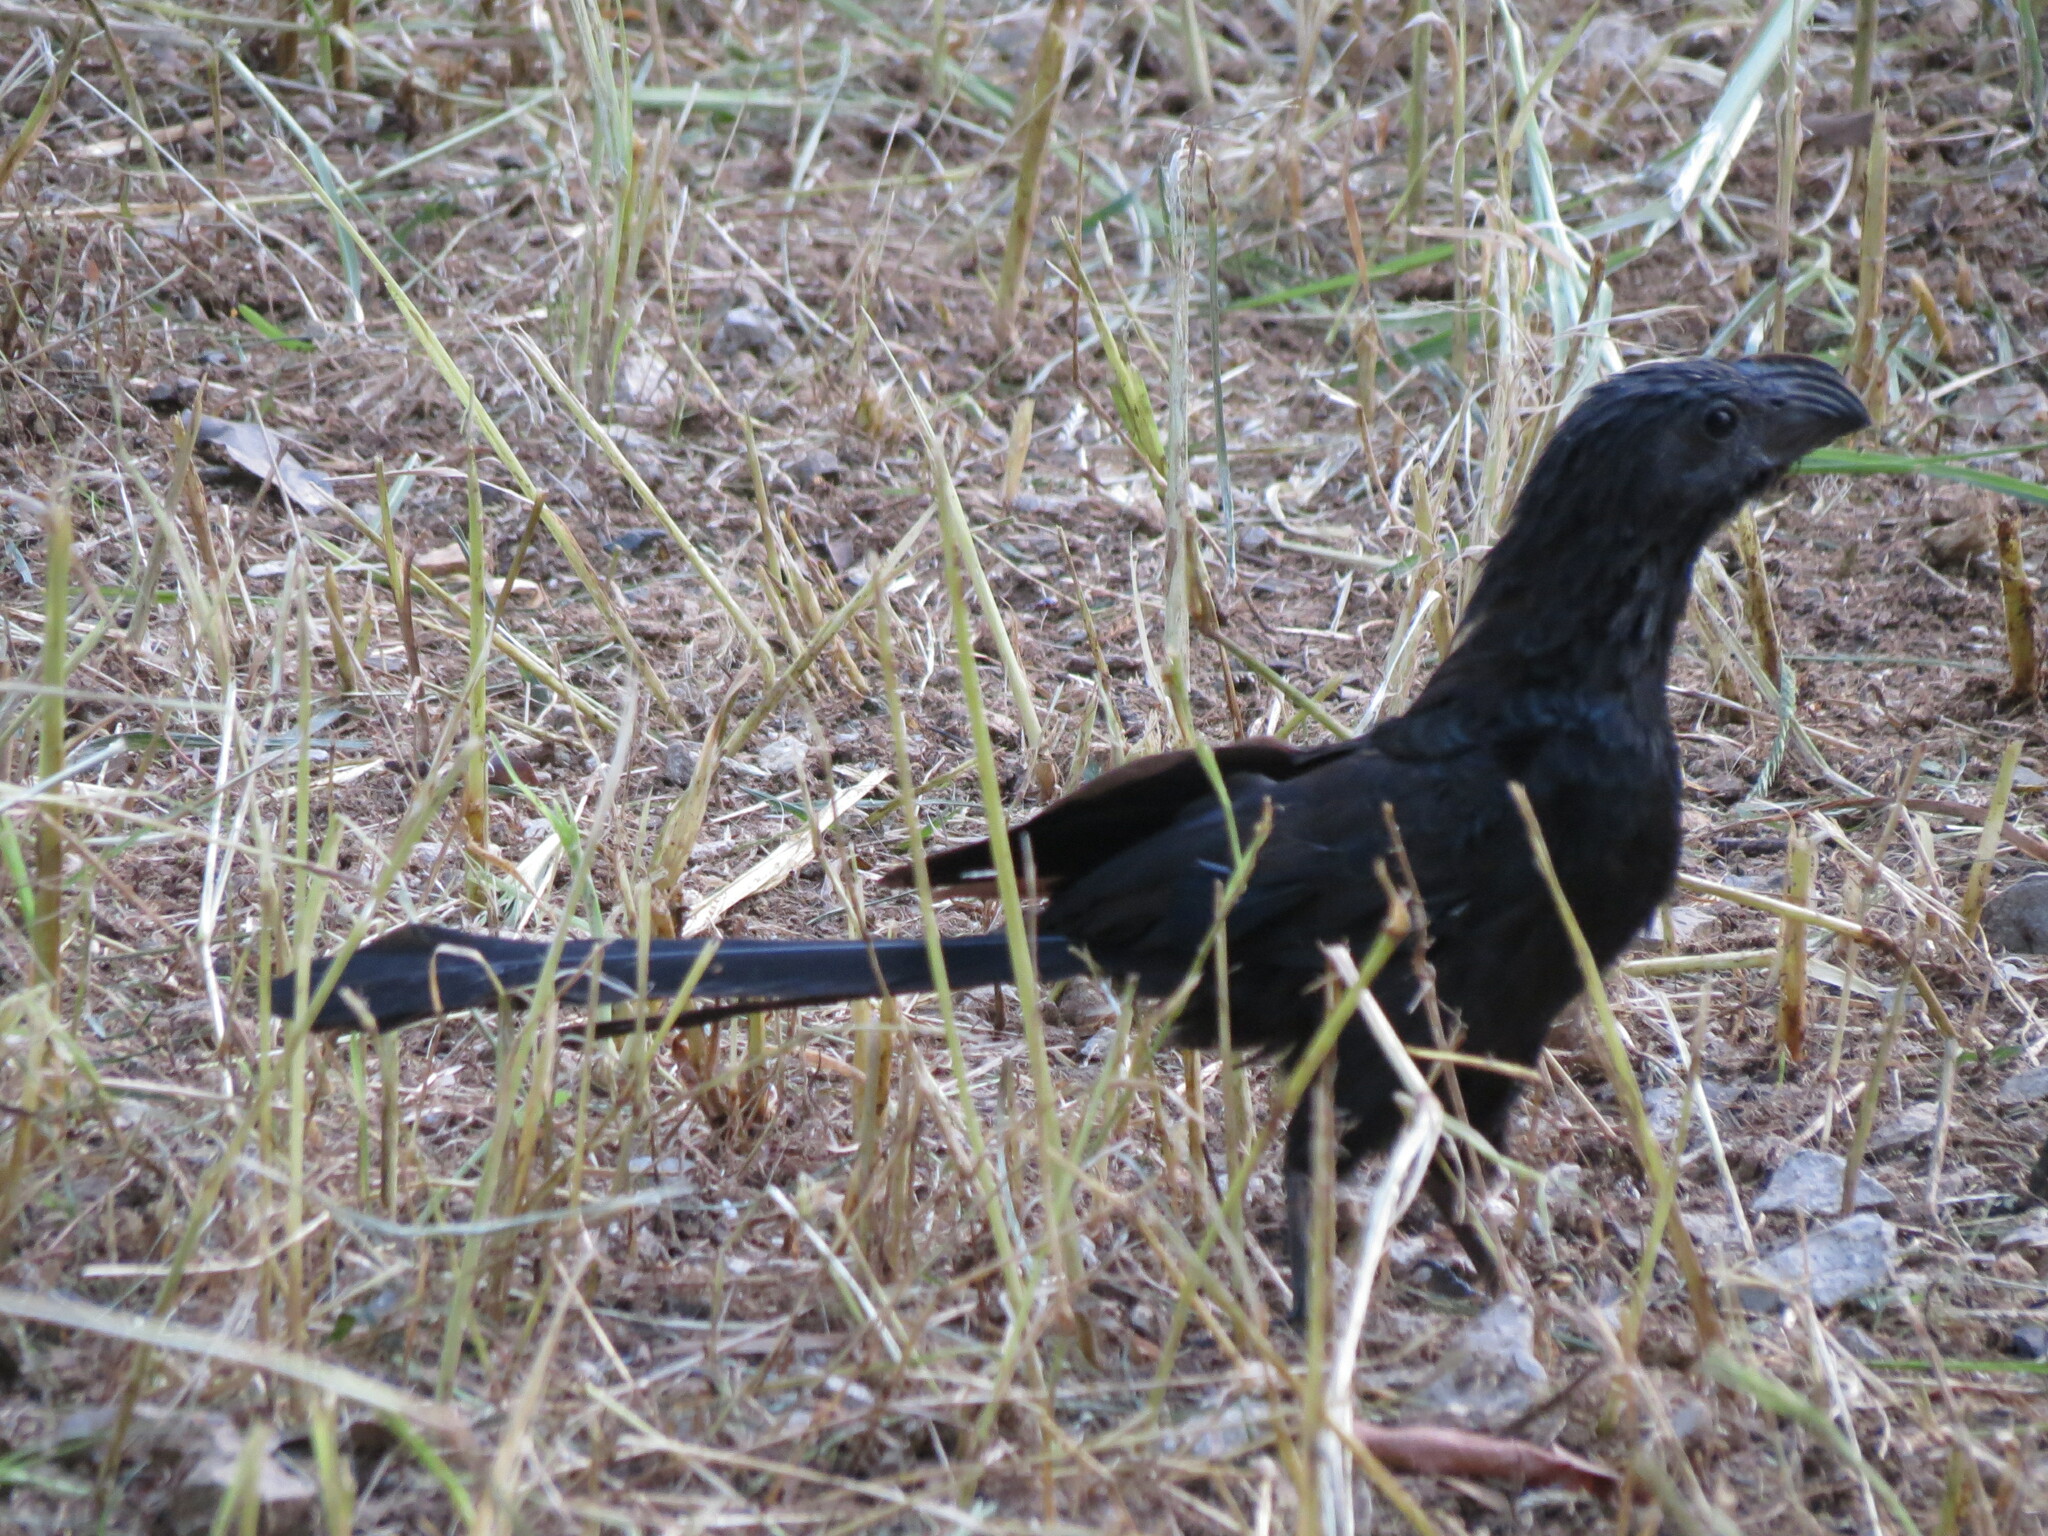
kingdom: Animalia
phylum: Chordata
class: Aves
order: Cuculiformes
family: Cuculidae
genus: Crotophaga
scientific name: Crotophaga sulcirostris
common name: Groove-billed ani
